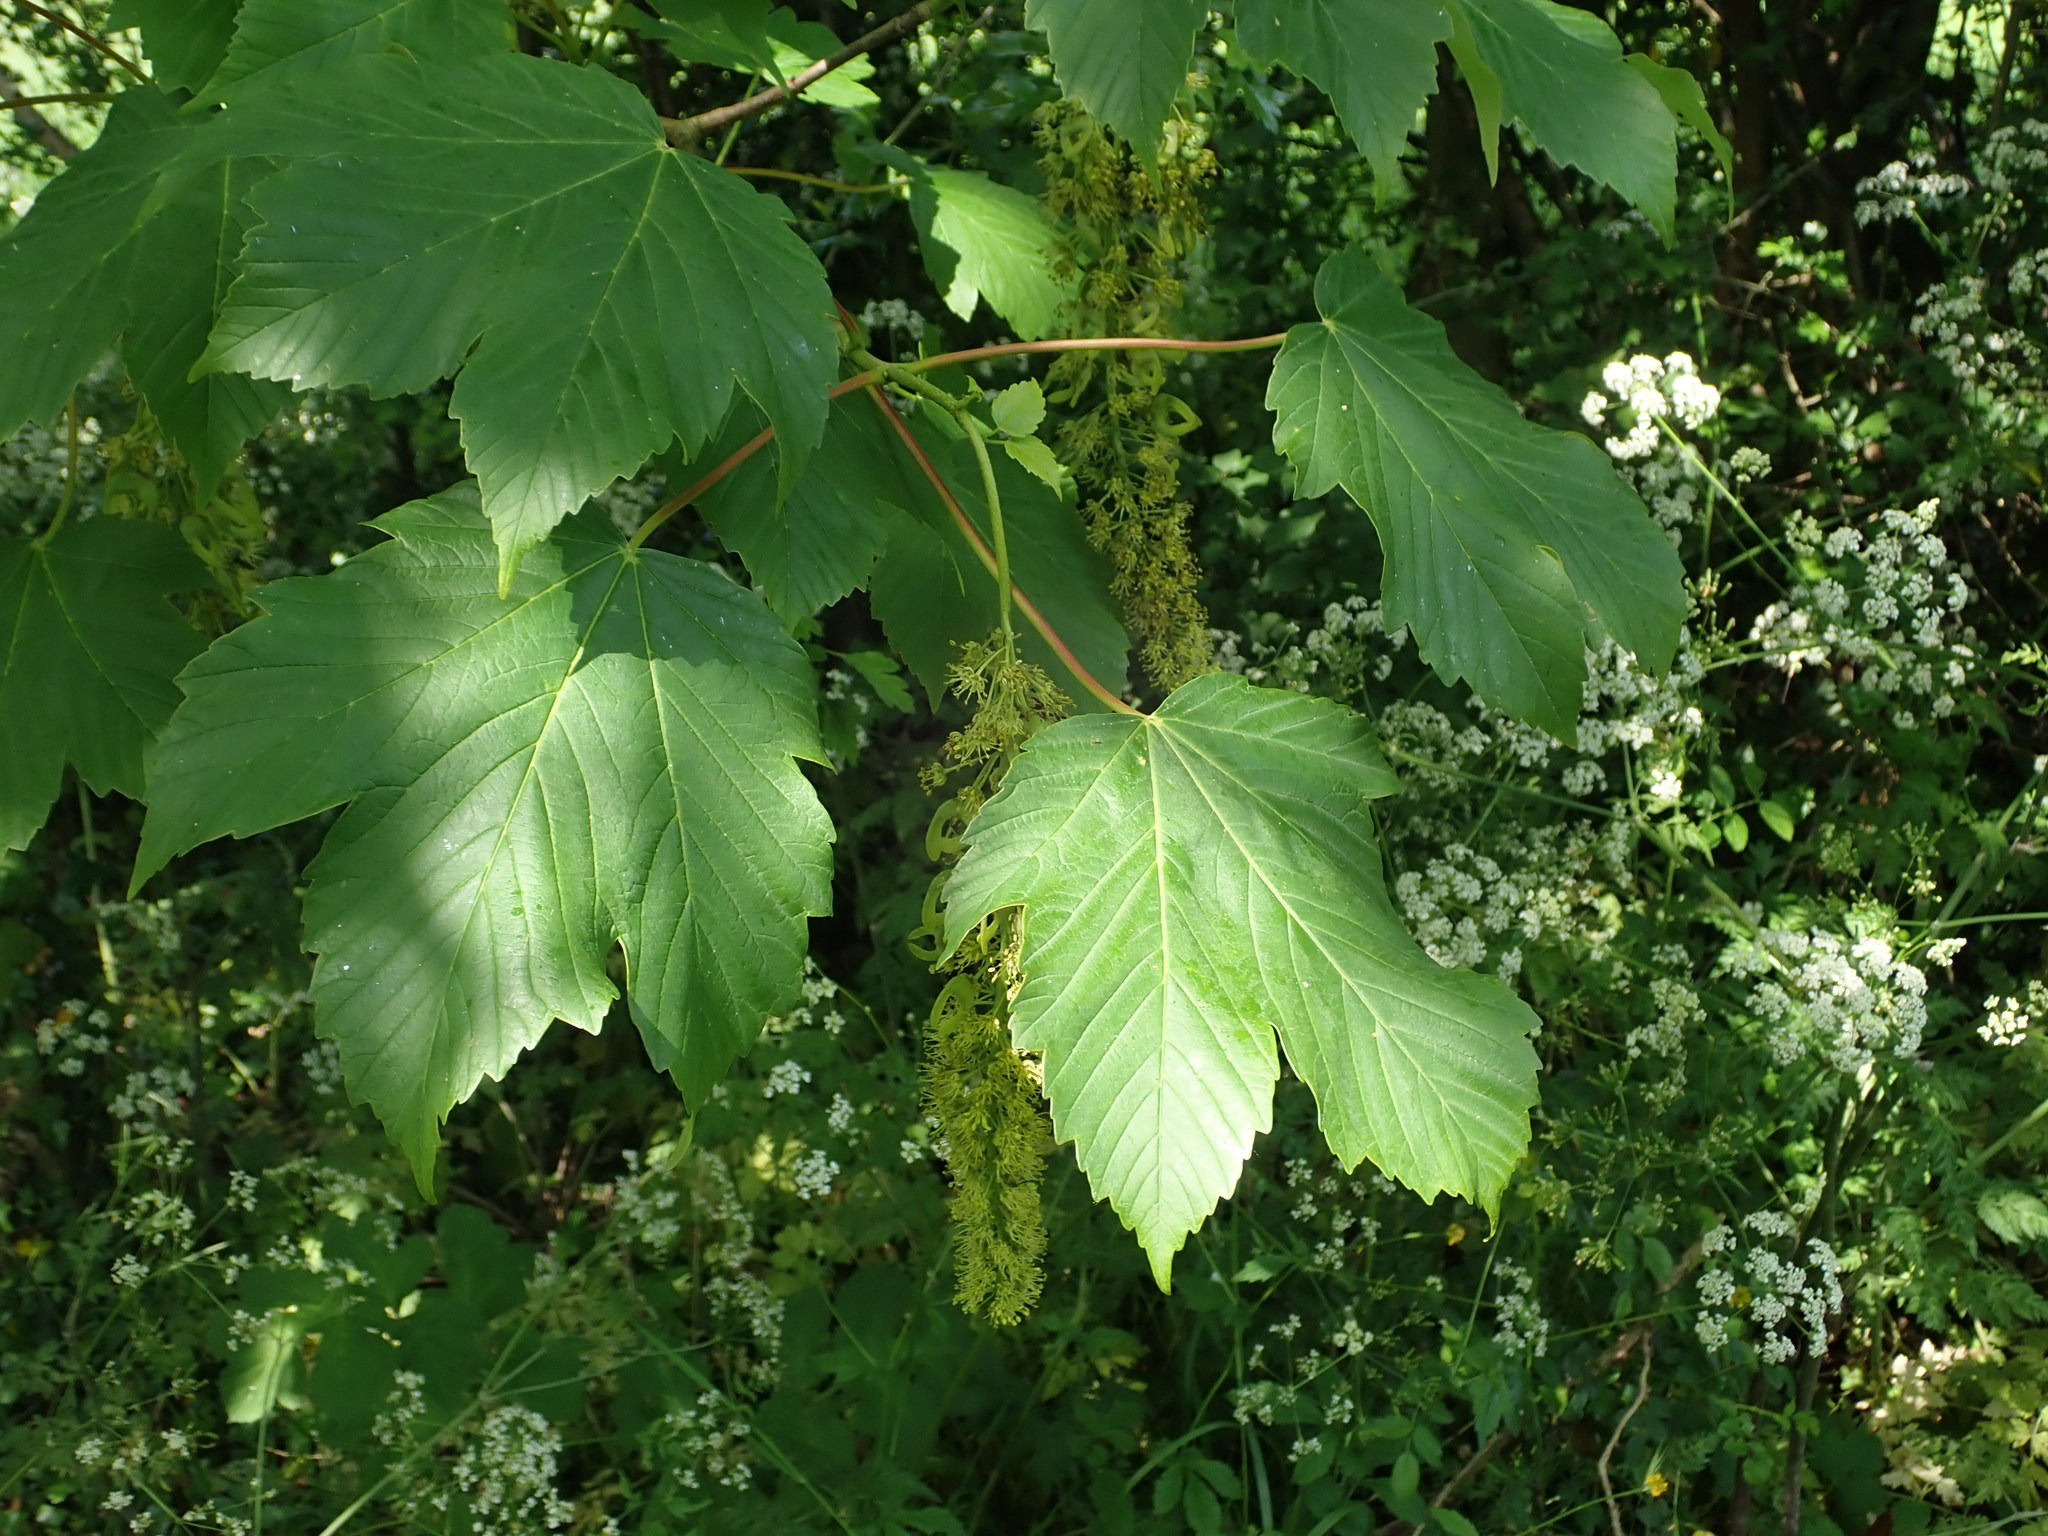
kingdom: Plantae
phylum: Tracheophyta
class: Magnoliopsida
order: Sapindales
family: Sapindaceae
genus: Acer
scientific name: Acer pseudoplatanus
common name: Sycamore
